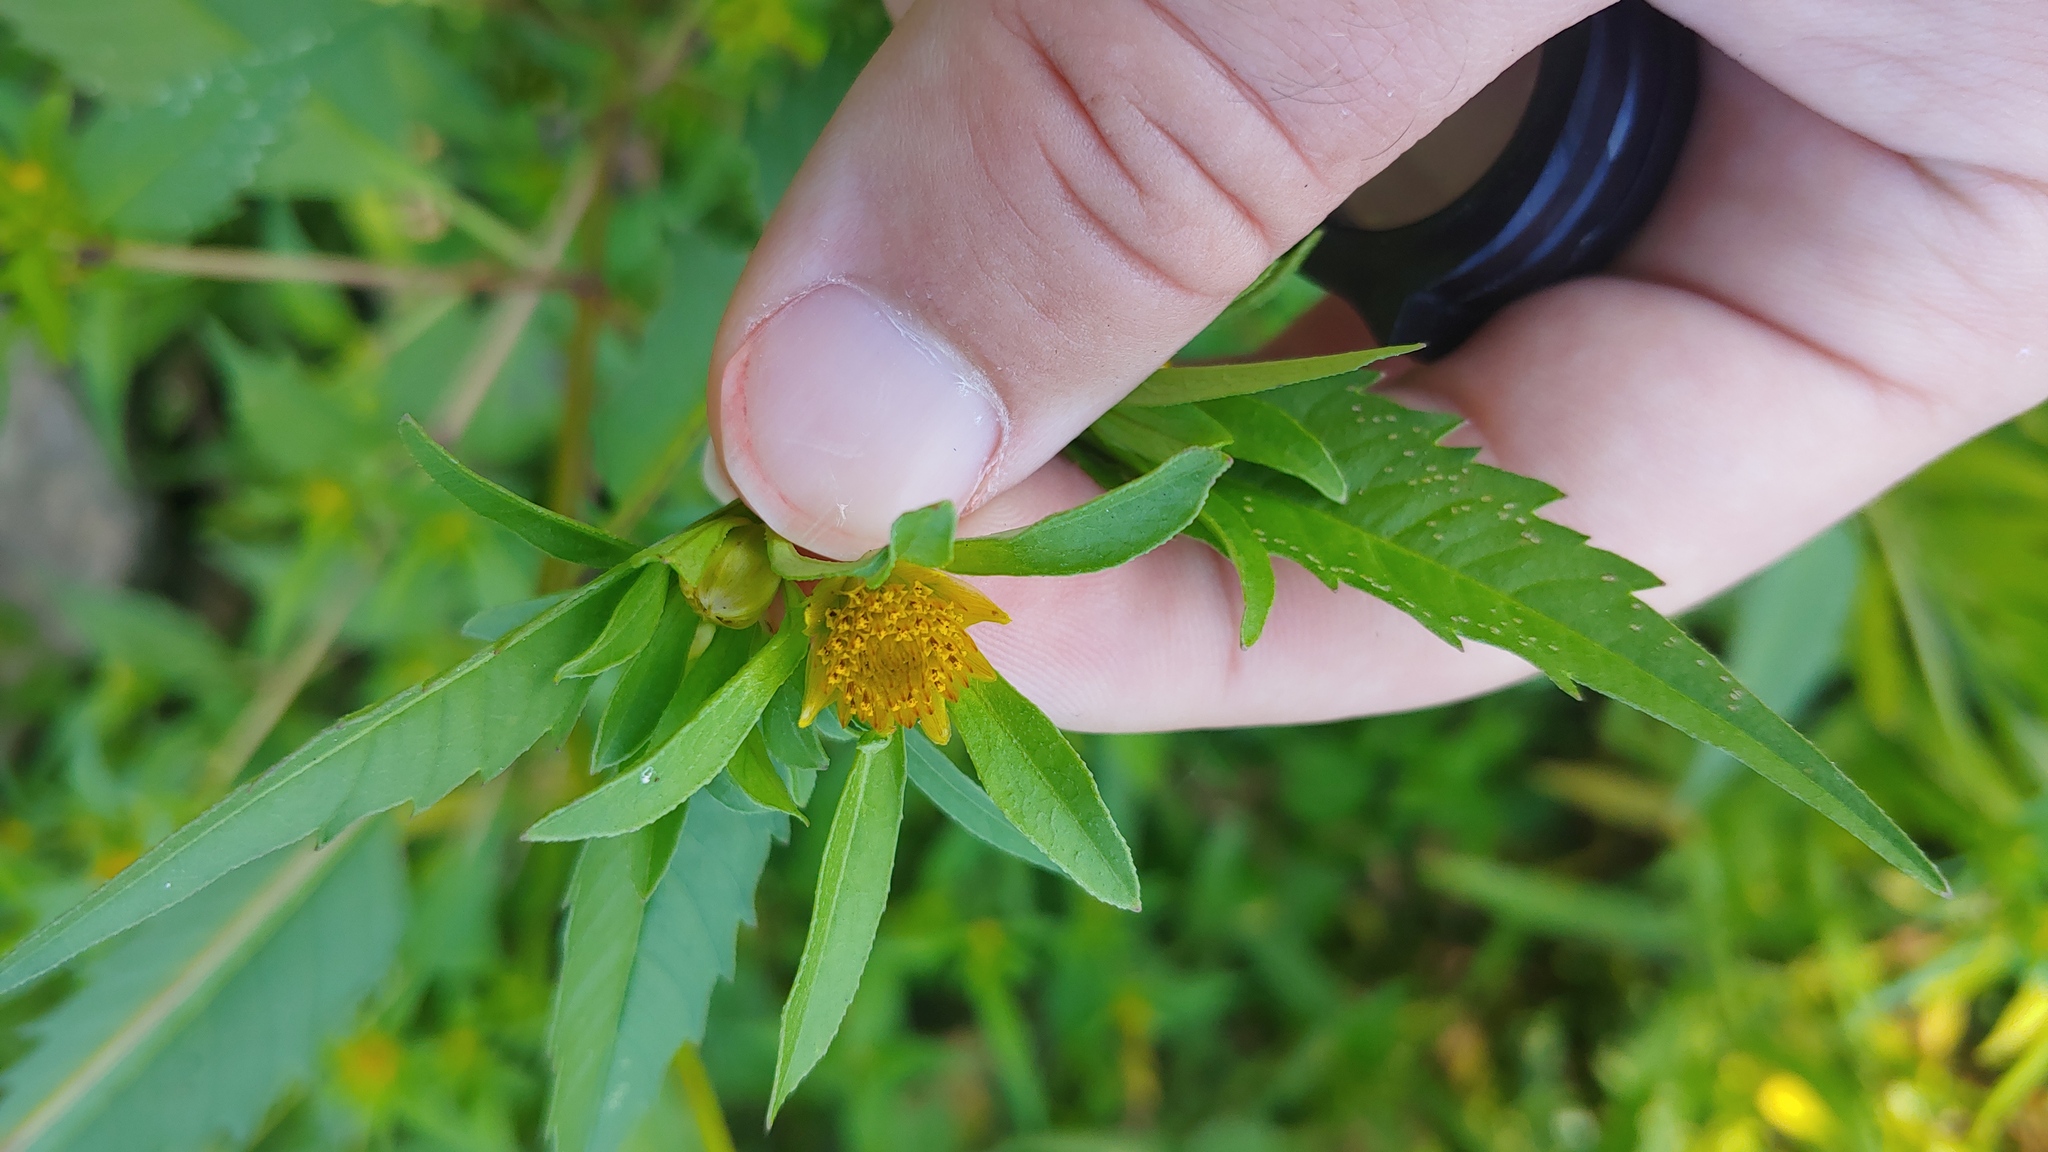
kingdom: Plantae
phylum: Tracheophyta
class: Magnoliopsida
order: Asterales
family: Asteraceae
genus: Bidens
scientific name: Bidens connata
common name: London bur-marigold
